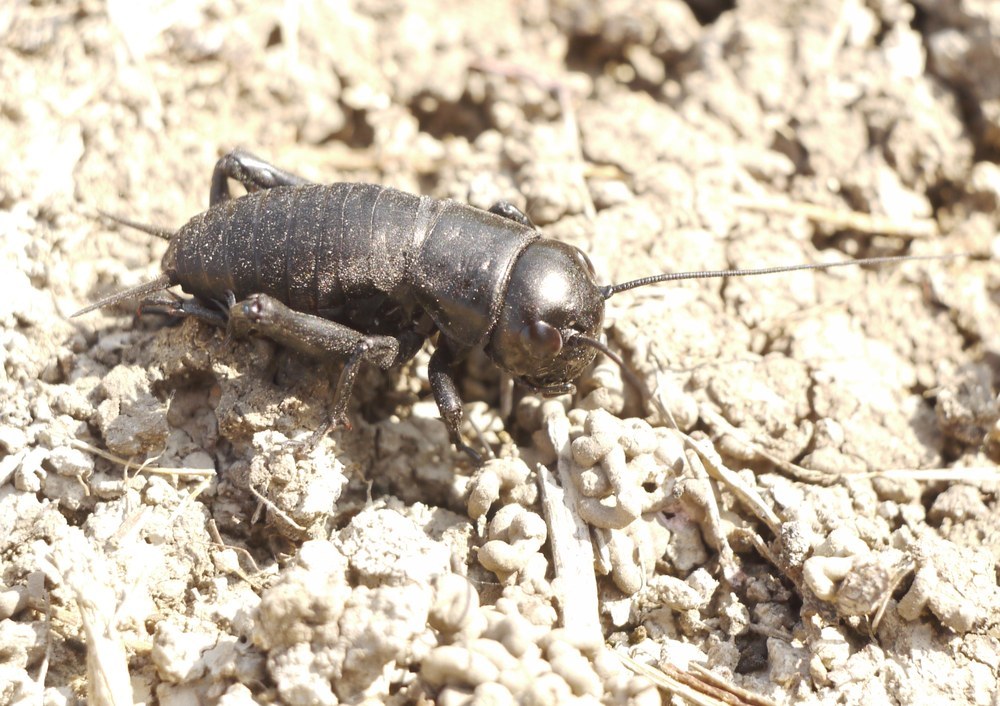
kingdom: Animalia
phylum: Arthropoda
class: Insecta
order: Orthoptera
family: Gryllidae
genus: Gryllus
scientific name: Gryllus campestris
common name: Field cricket
